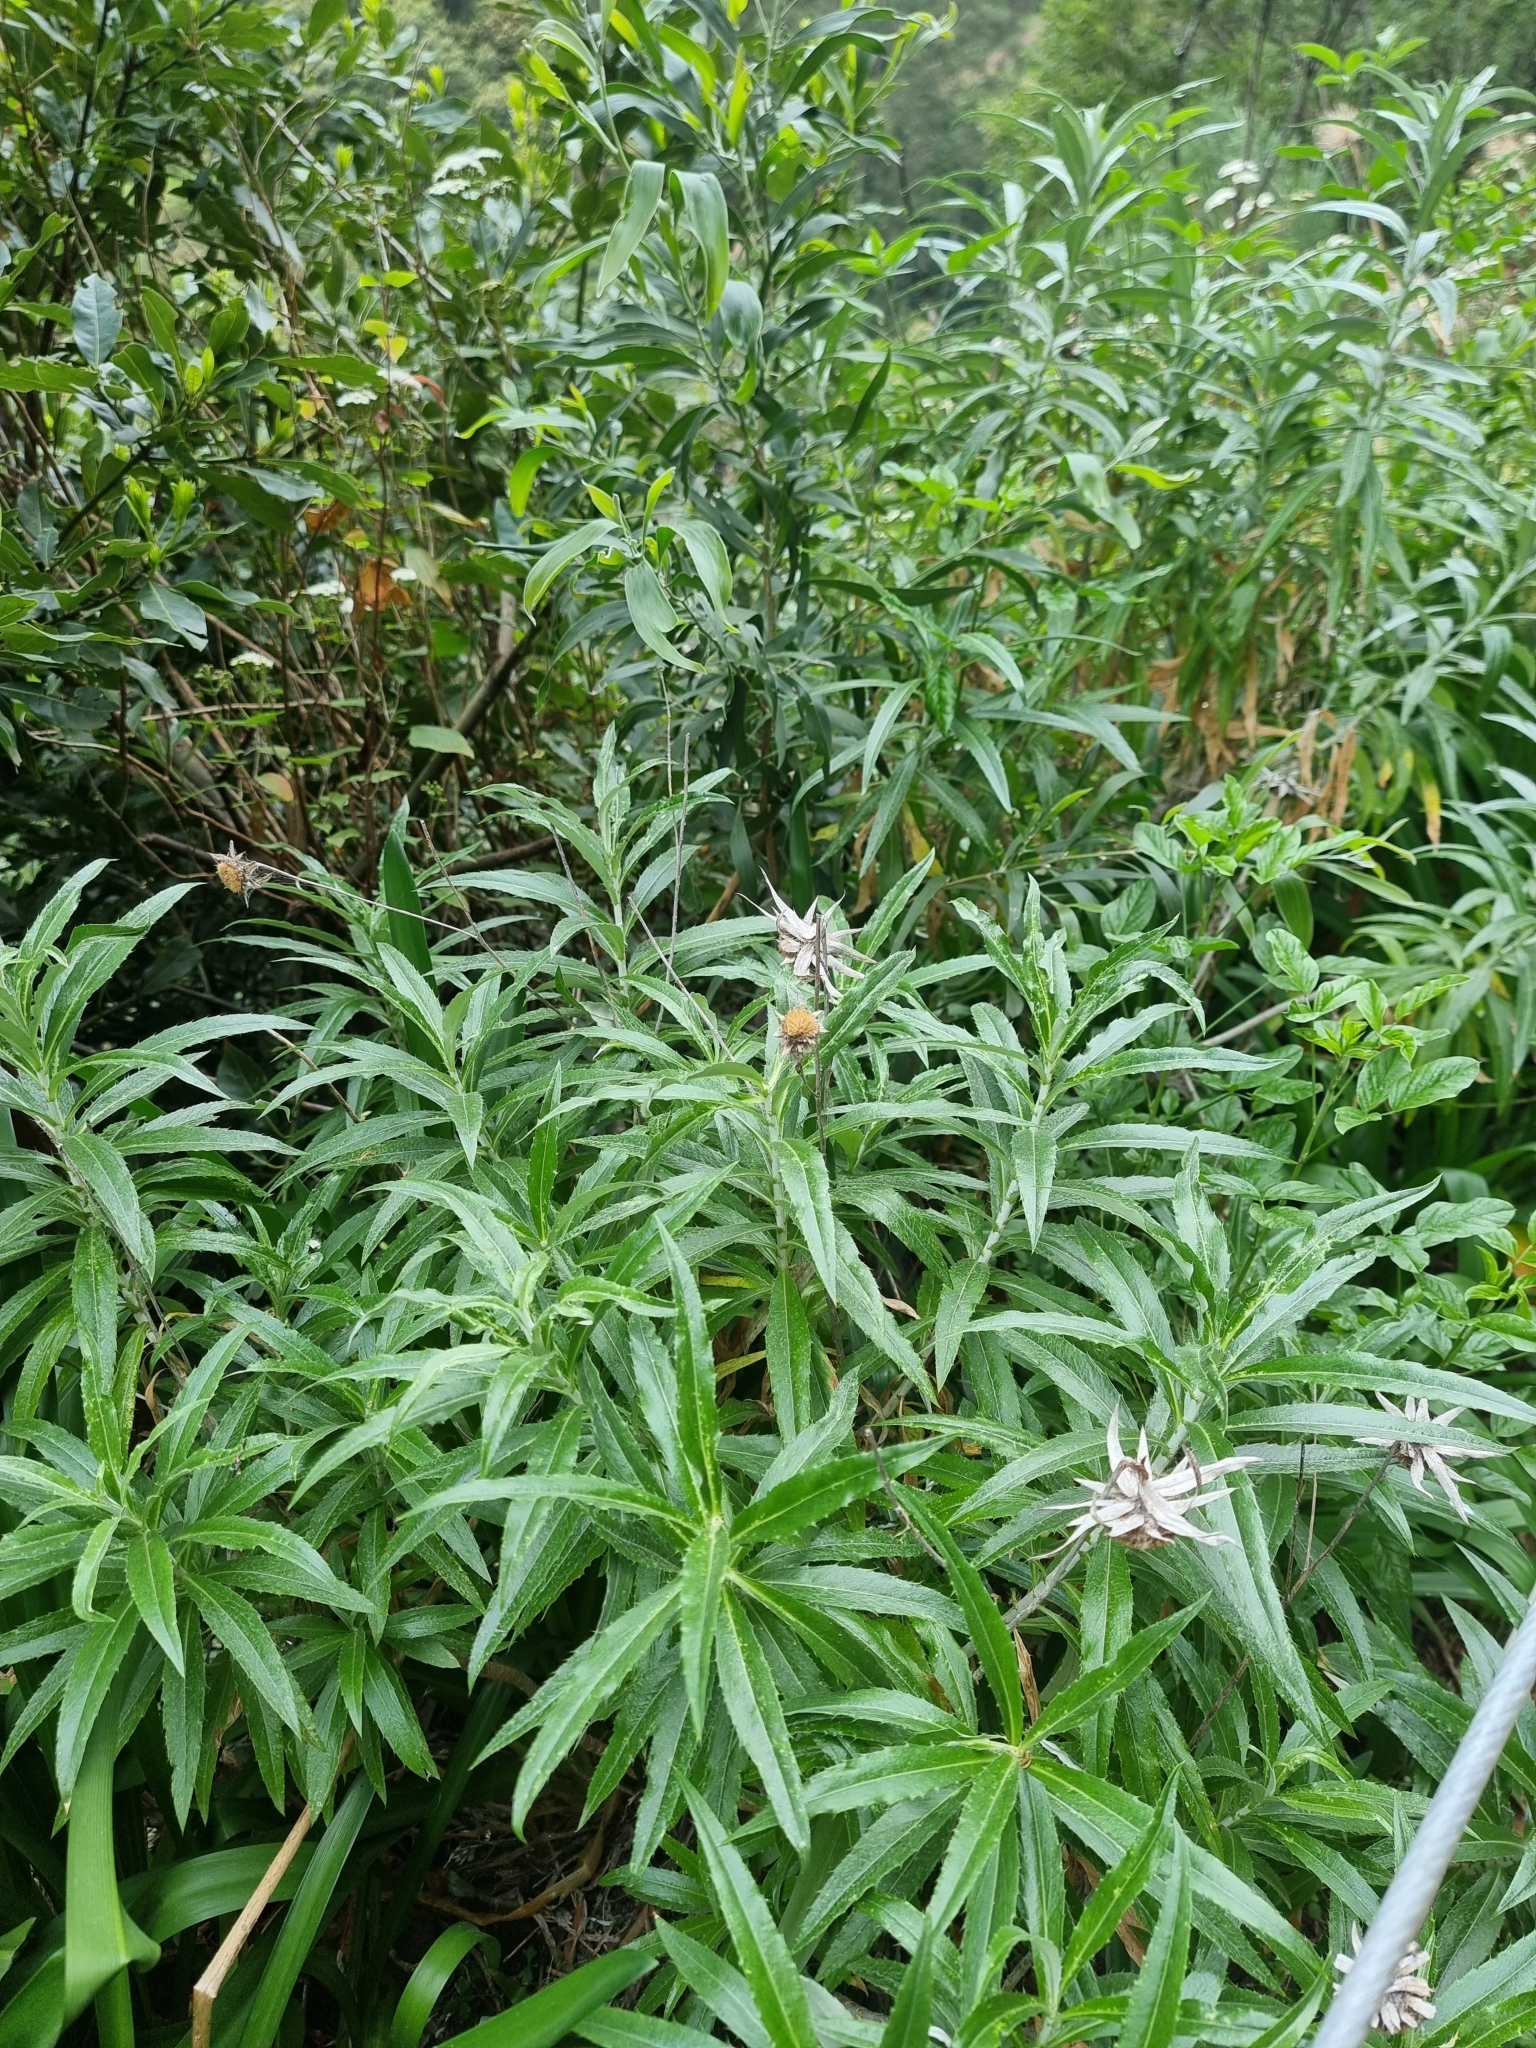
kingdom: Plantae
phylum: Tracheophyta
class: Magnoliopsida
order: Asterales
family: Asteraceae
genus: Carlina
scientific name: Carlina salicifolia
